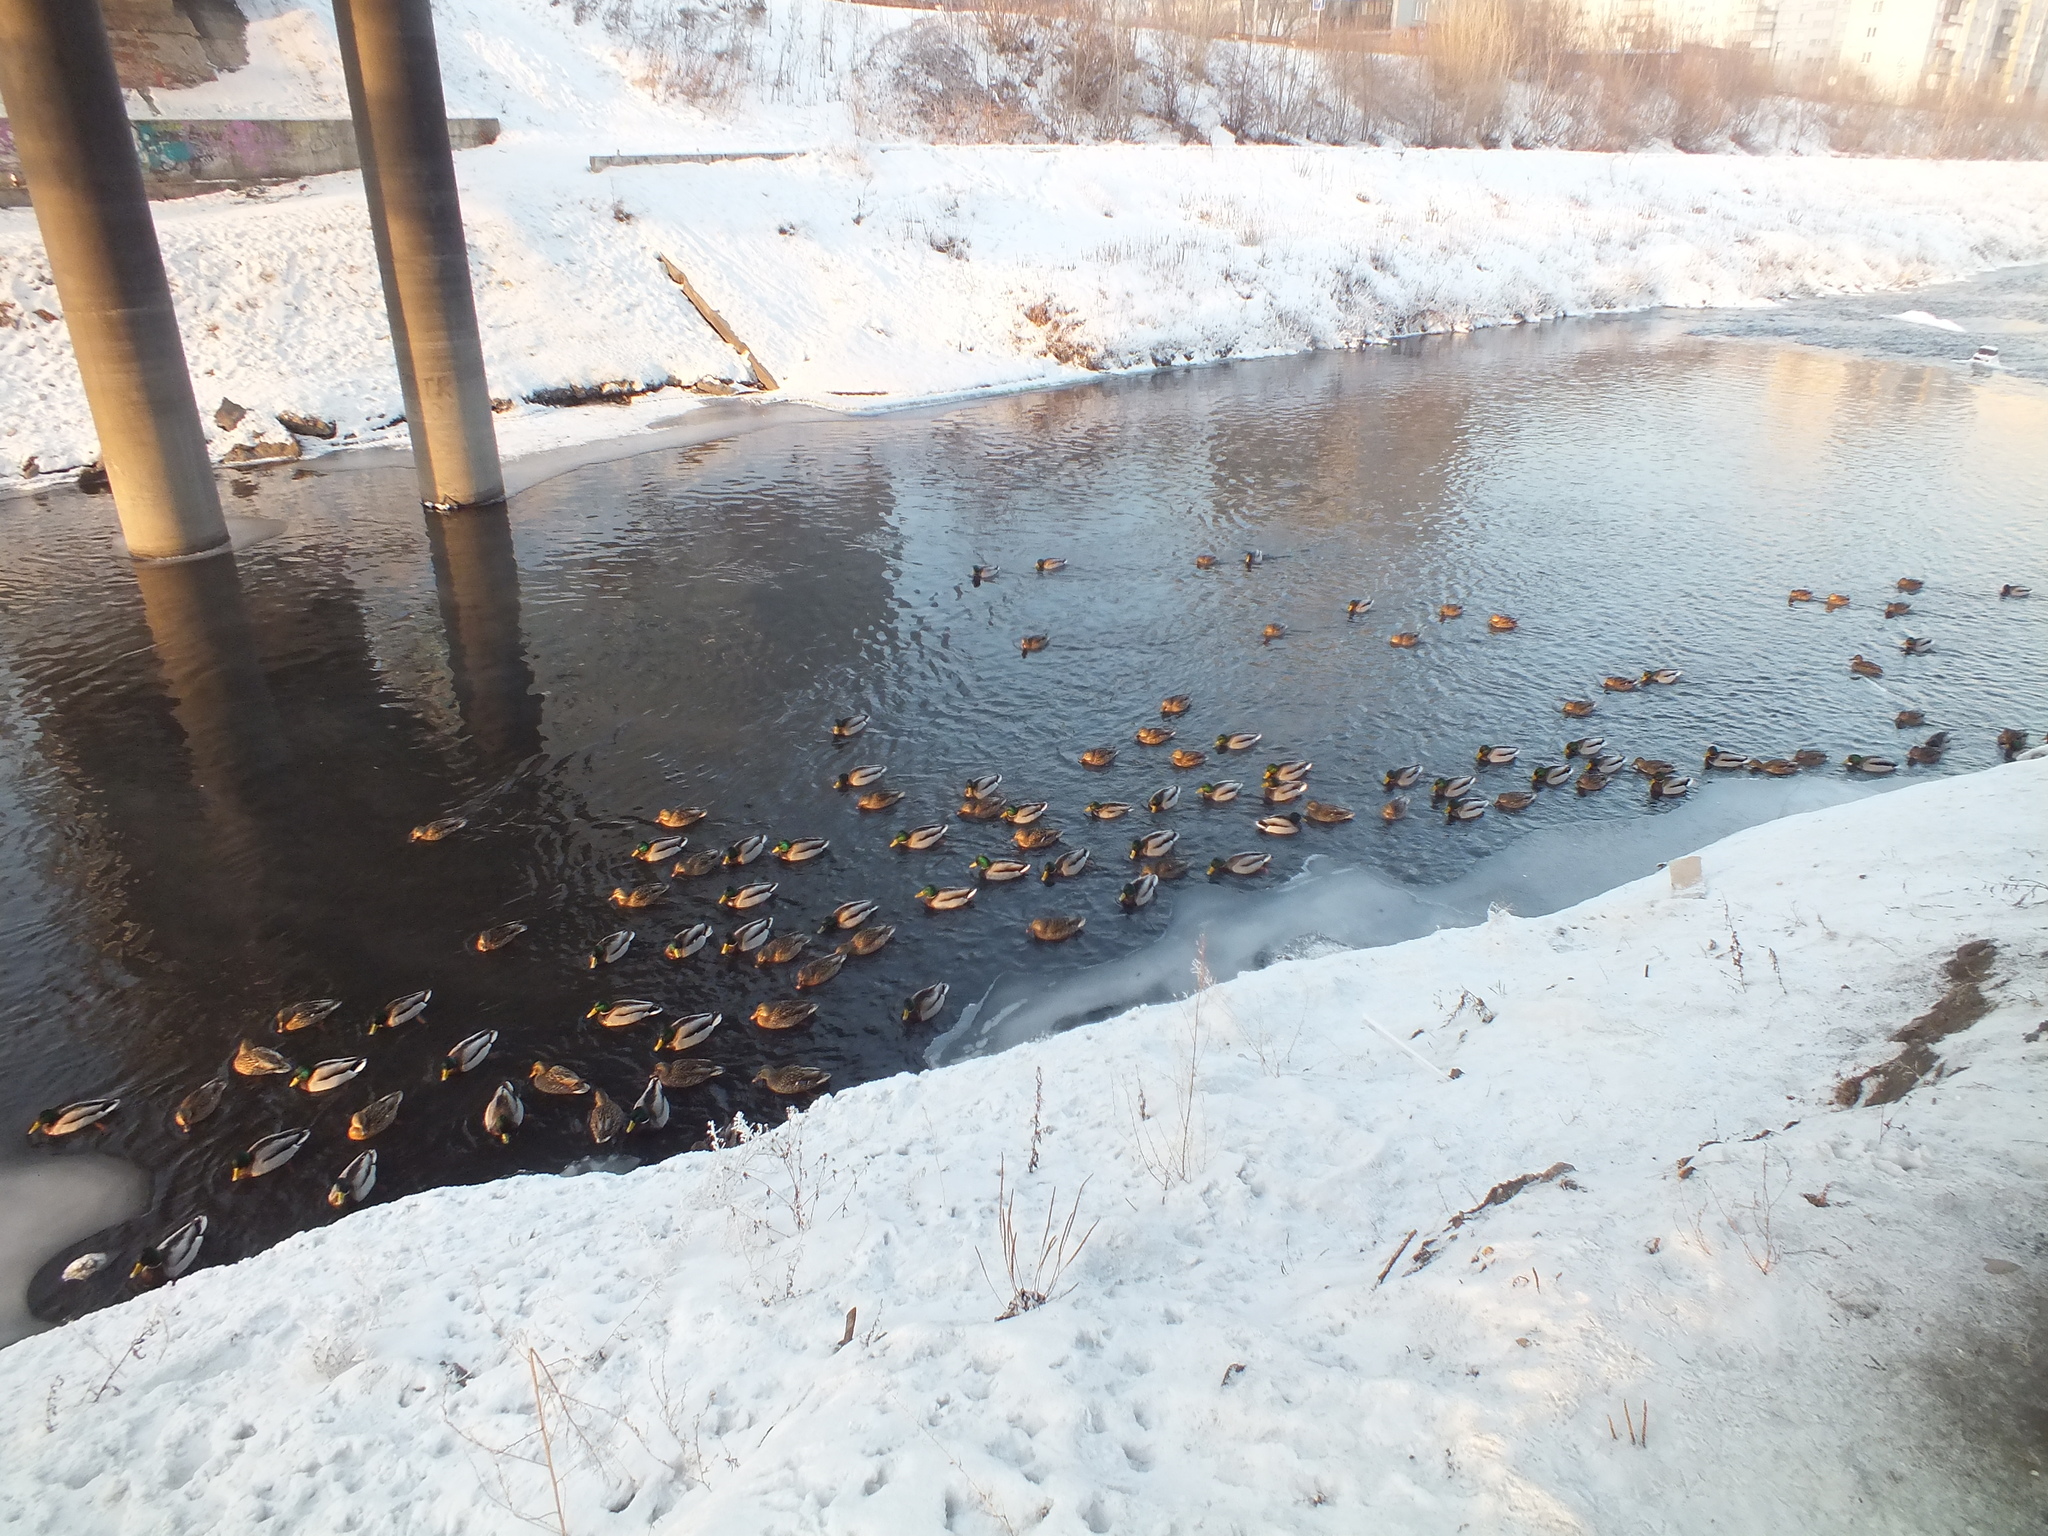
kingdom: Animalia
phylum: Chordata
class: Aves
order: Anseriformes
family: Anatidae
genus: Anas
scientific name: Anas platyrhynchos
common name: Mallard
